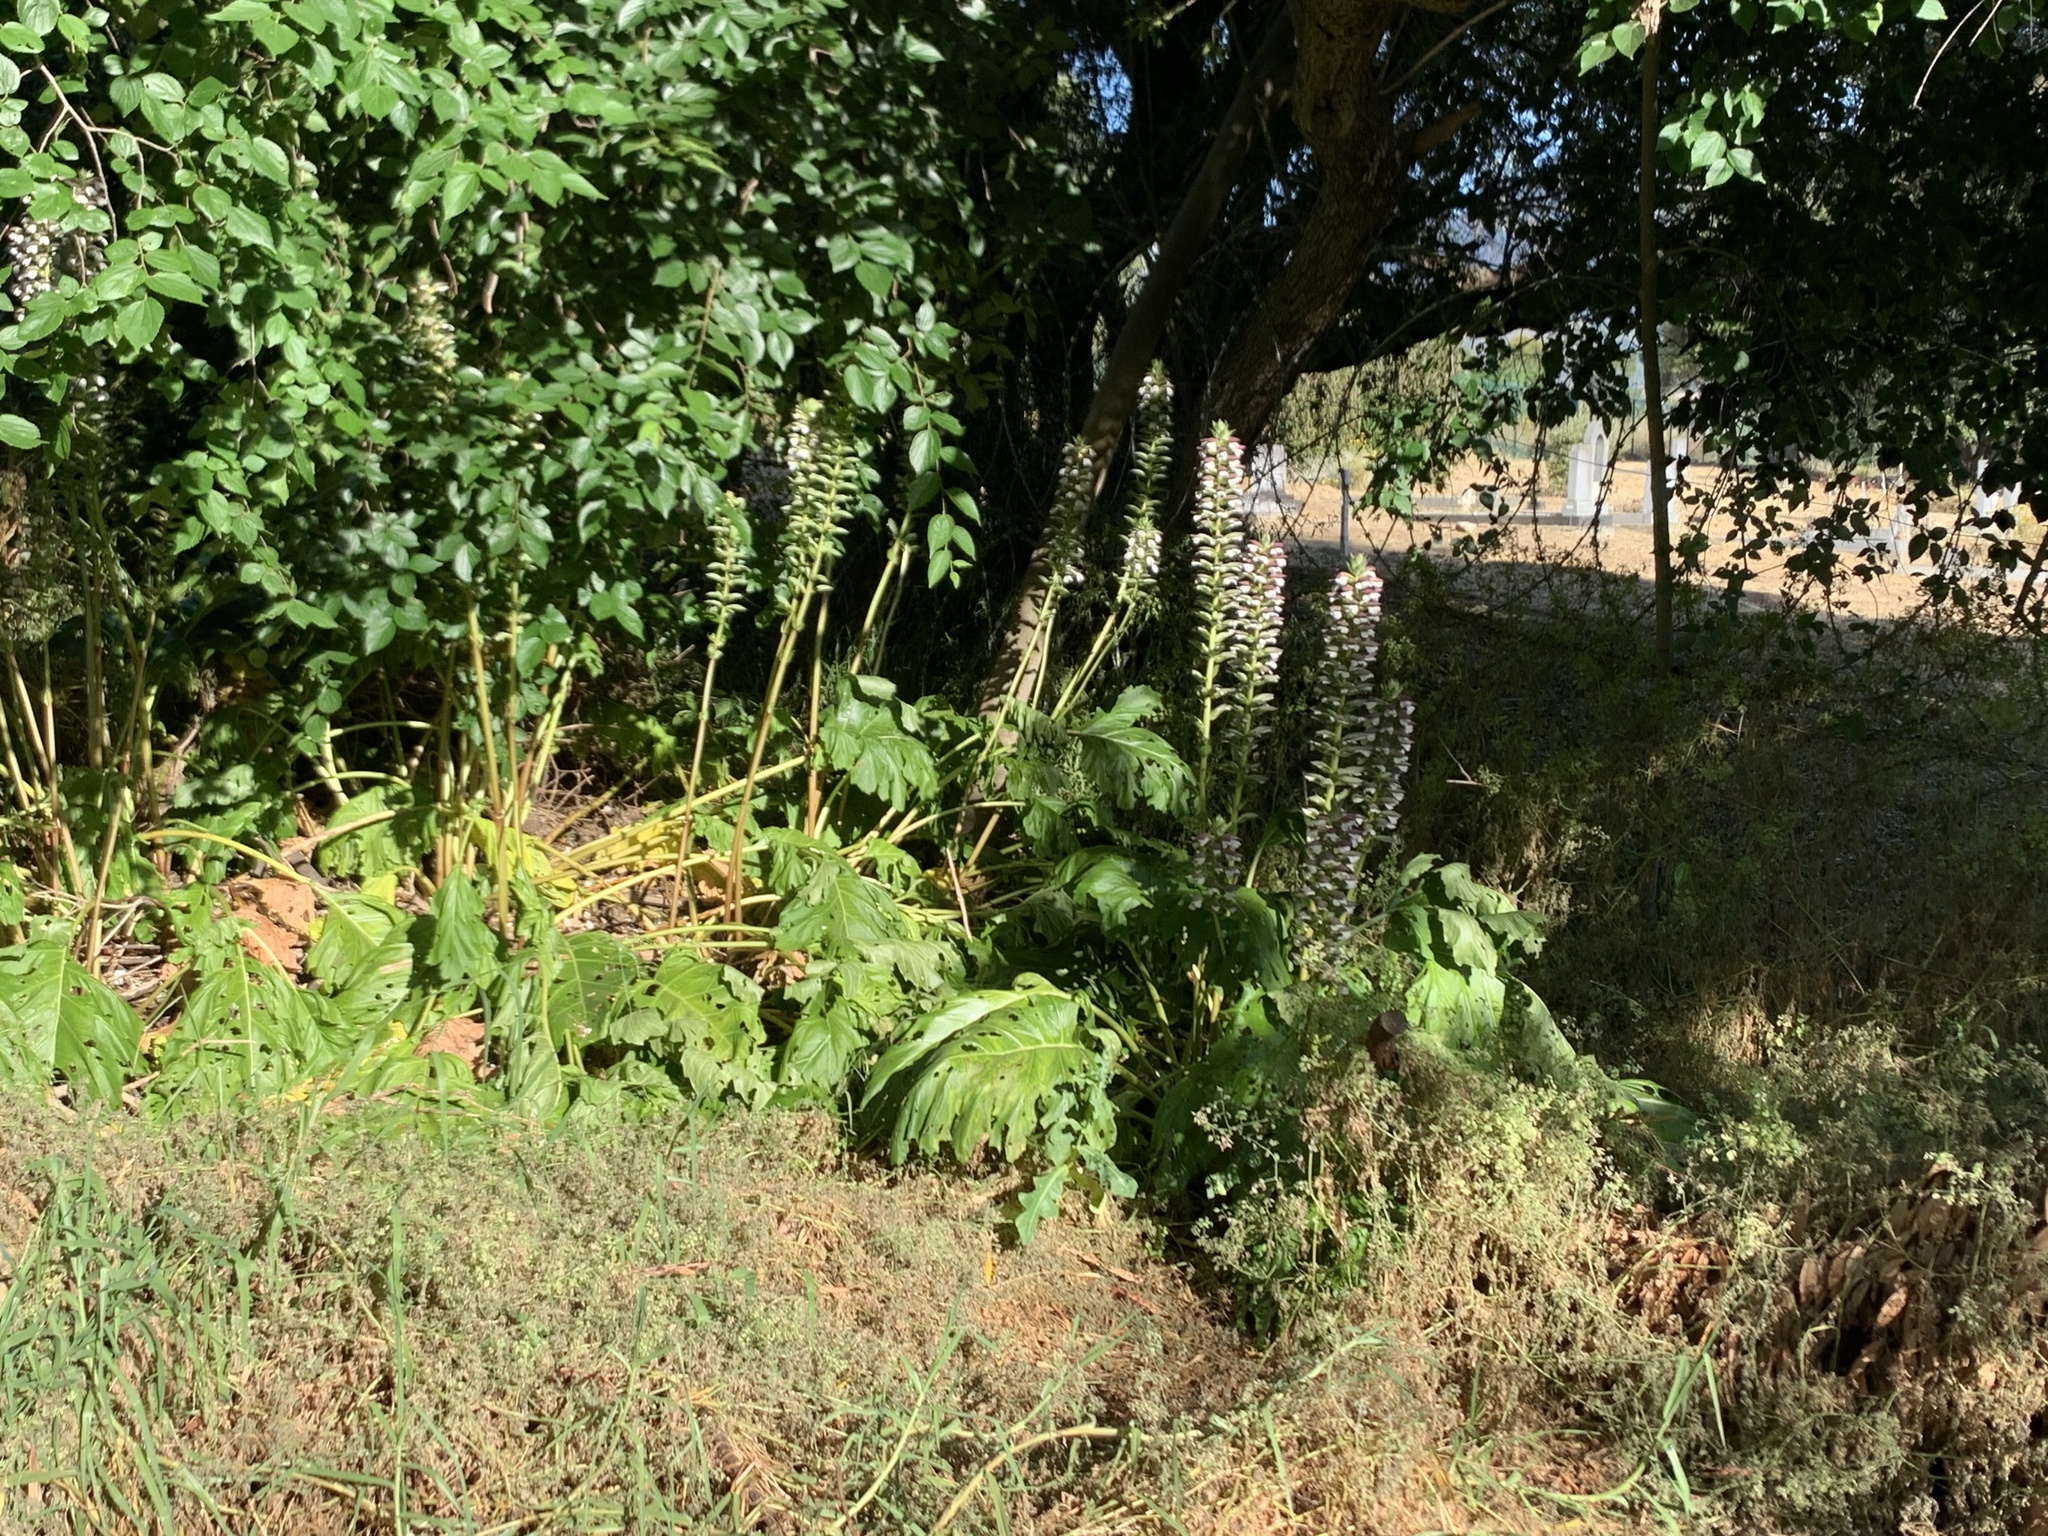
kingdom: Plantae
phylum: Tracheophyta
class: Magnoliopsida
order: Lamiales
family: Acanthaceae
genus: Acanthus
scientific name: Acanthus mollis
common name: Bear's-breech
